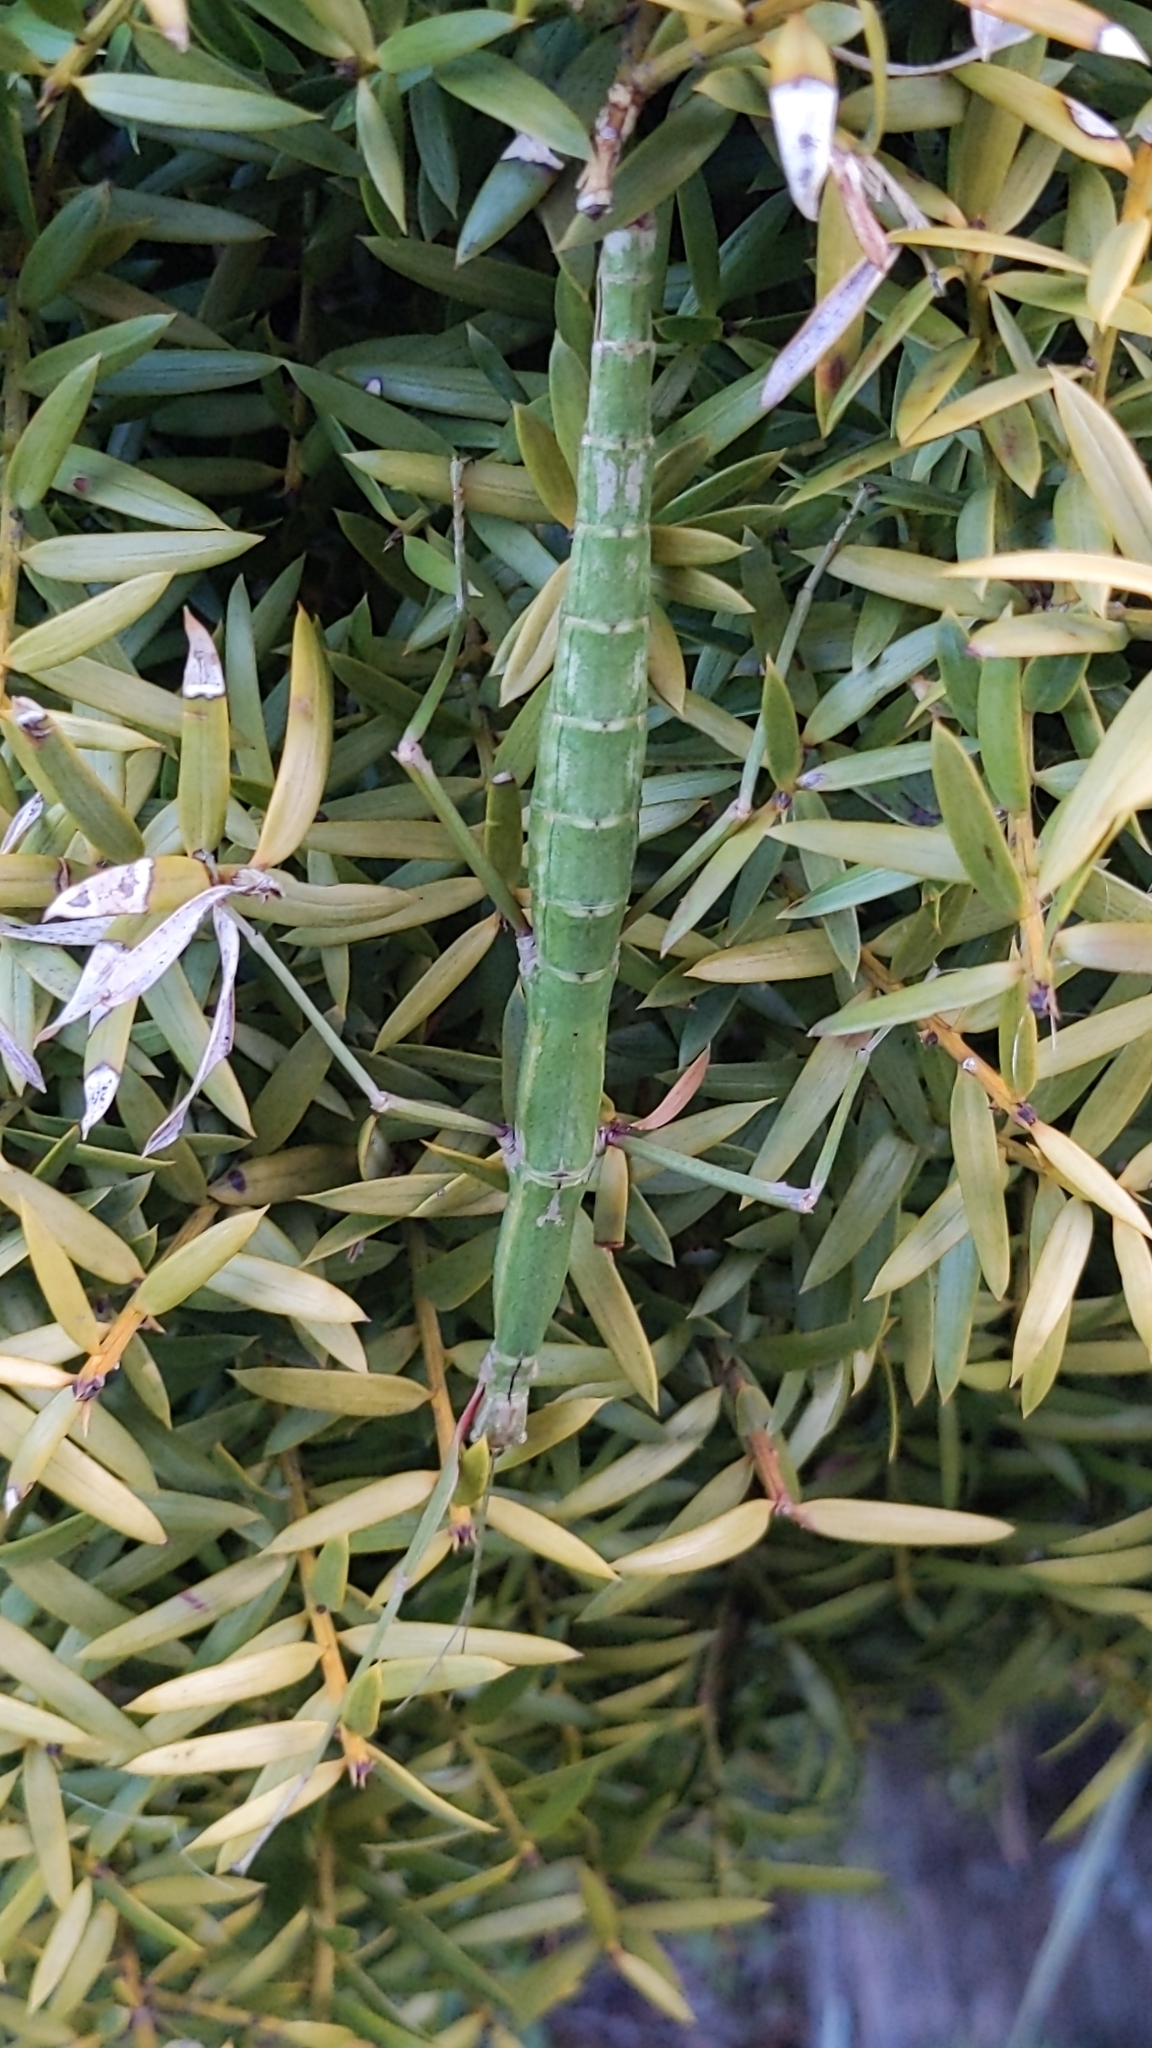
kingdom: Animalia
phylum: Arthropoda
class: Insecta
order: Phasmida
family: Phasmatidae
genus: Acanthoxyla
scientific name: Acanthoxyla inermis
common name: Unarmed stick insect
